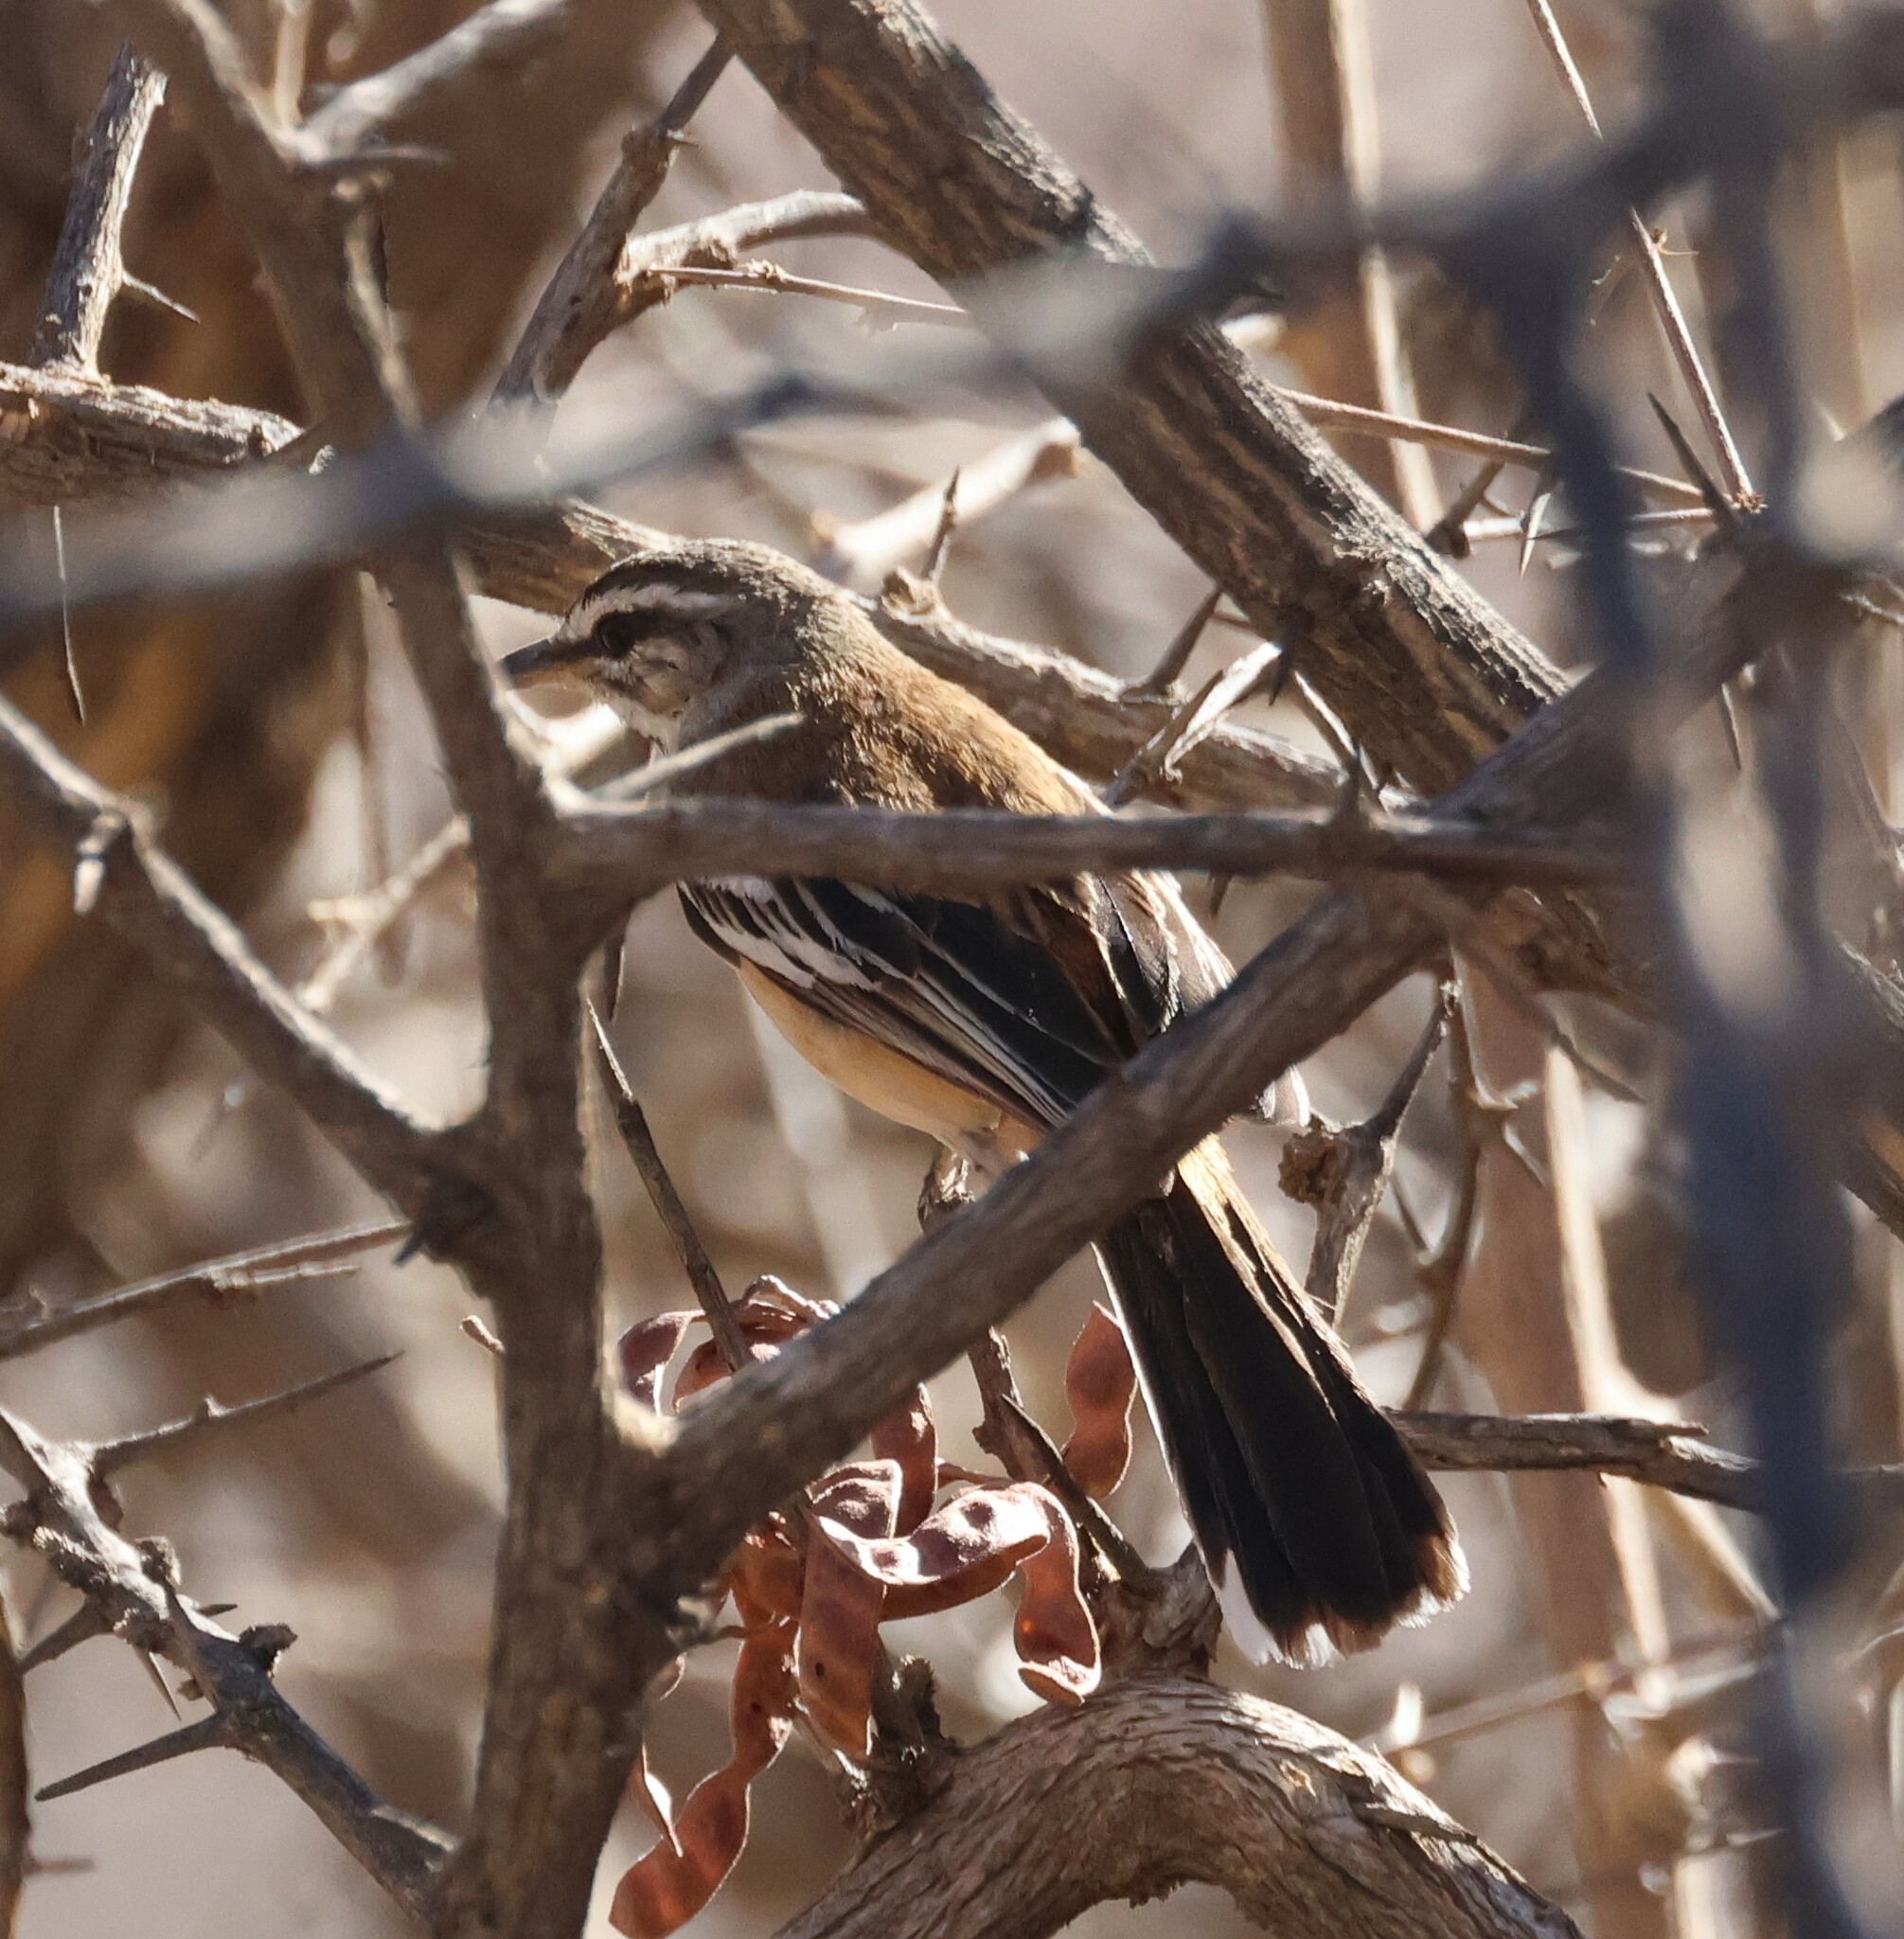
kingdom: Animalia
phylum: Chordata
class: Aves
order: Passeriformes
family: Muscicapidae
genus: Erythropygia
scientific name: Erythropygia leucophrys
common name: White-browed scrub robin
